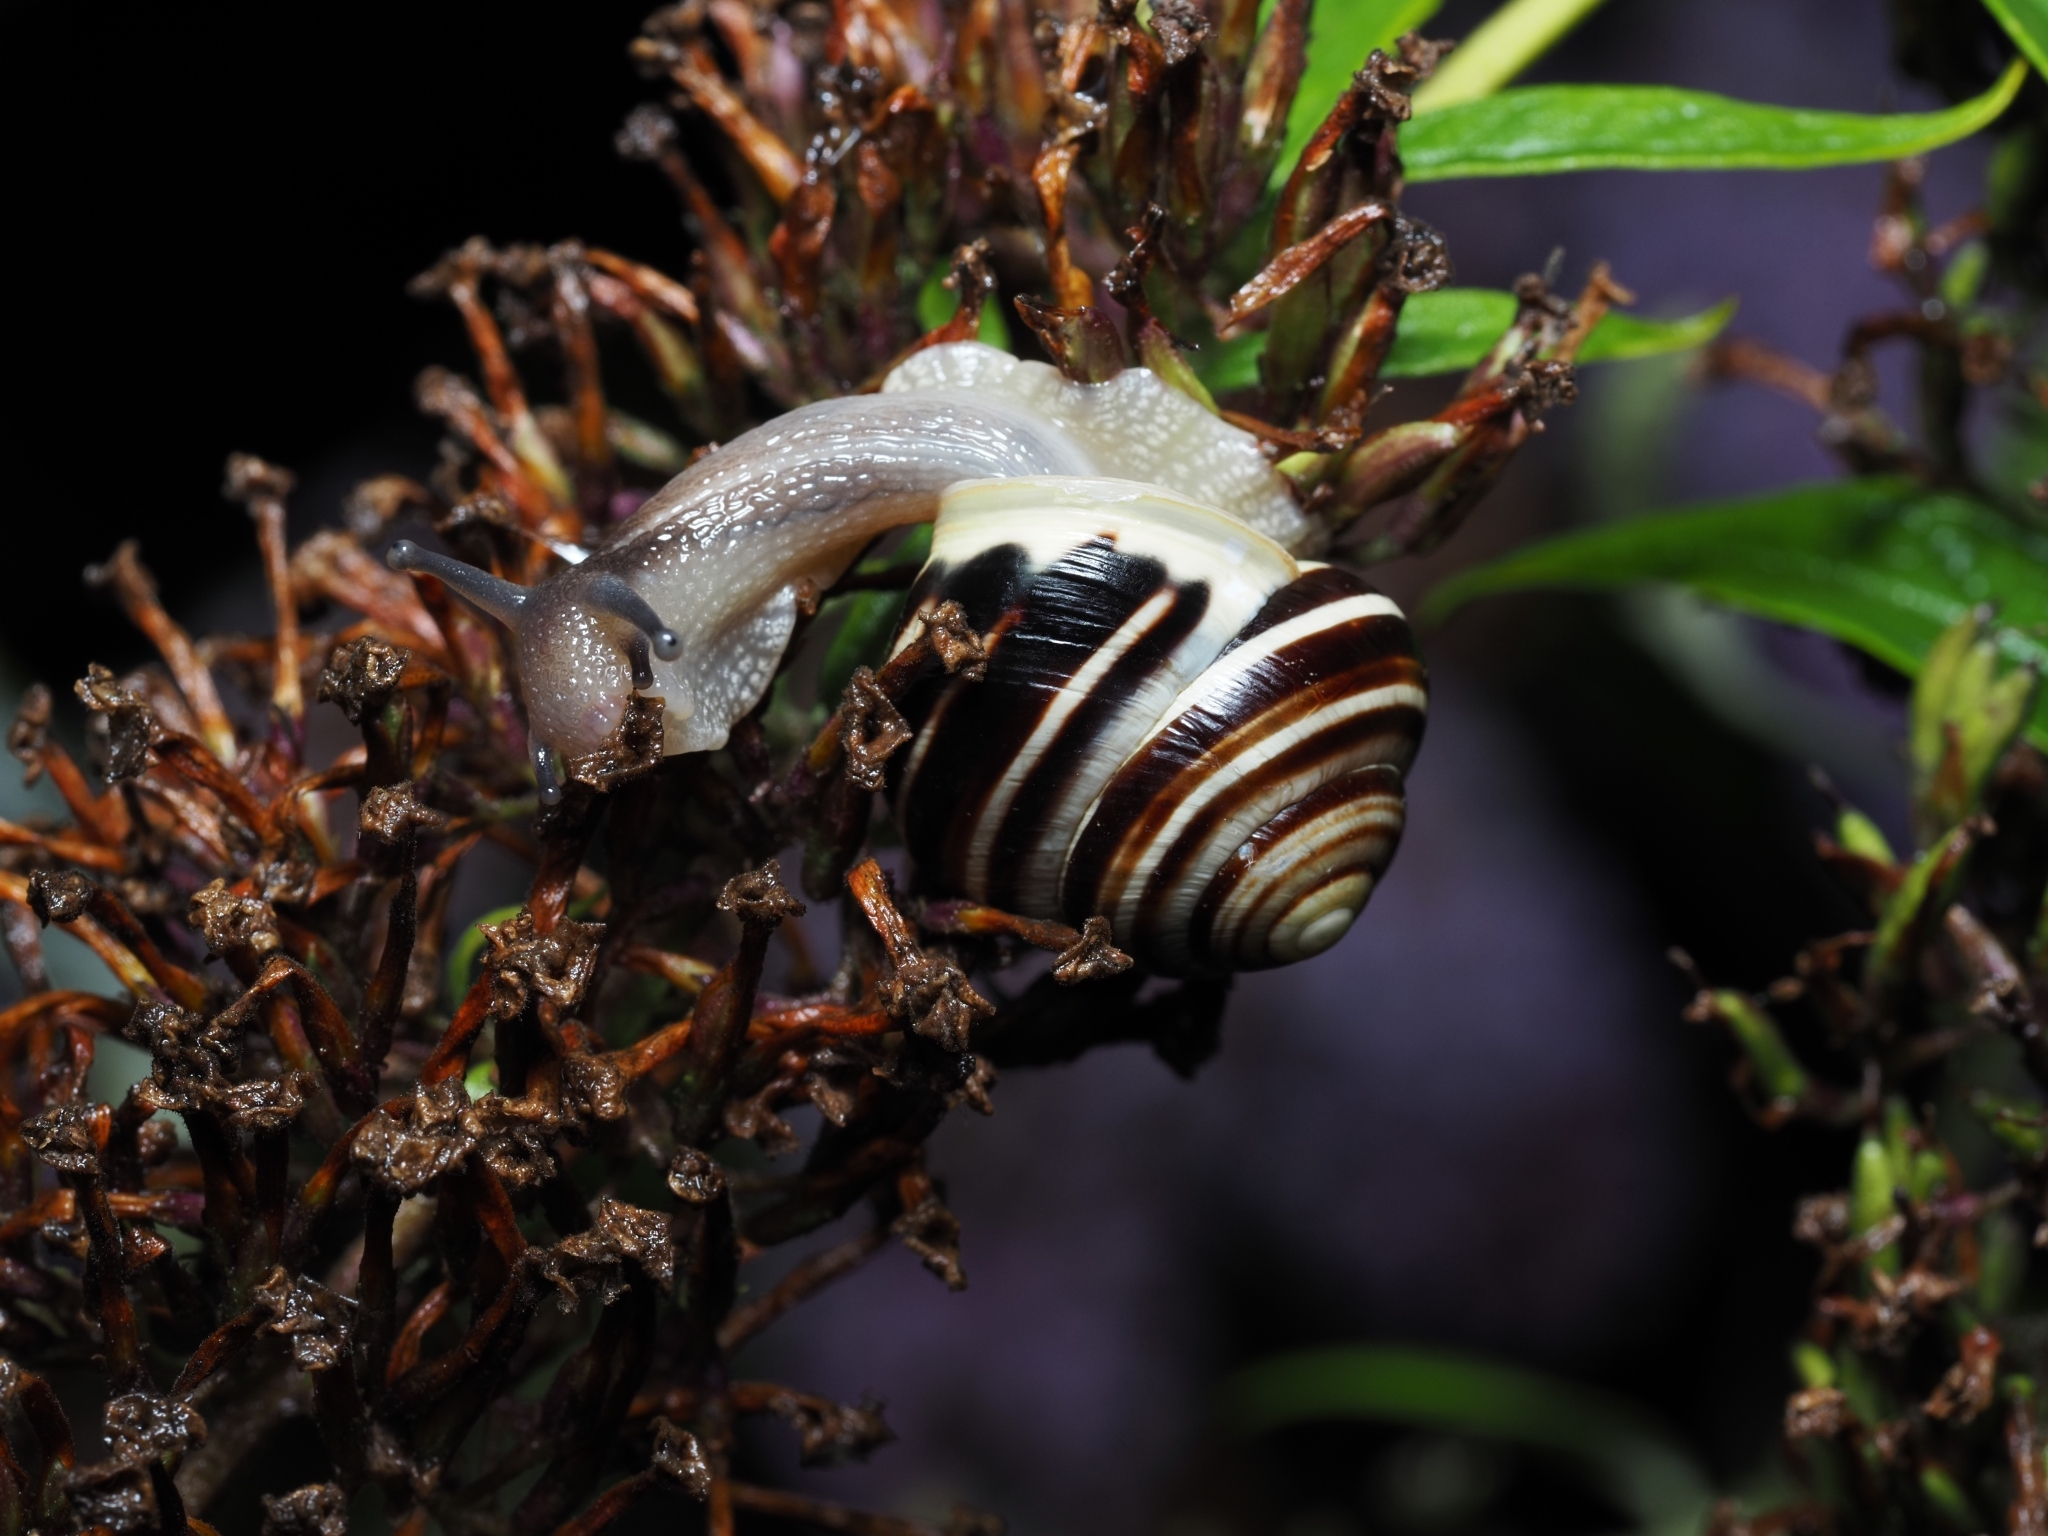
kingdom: Animalia
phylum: Mollusca
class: Gastropoda
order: Stylommatophora
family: Helicidae
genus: Cepaea
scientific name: Cepaea hortensis
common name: White-lip gardensnail
